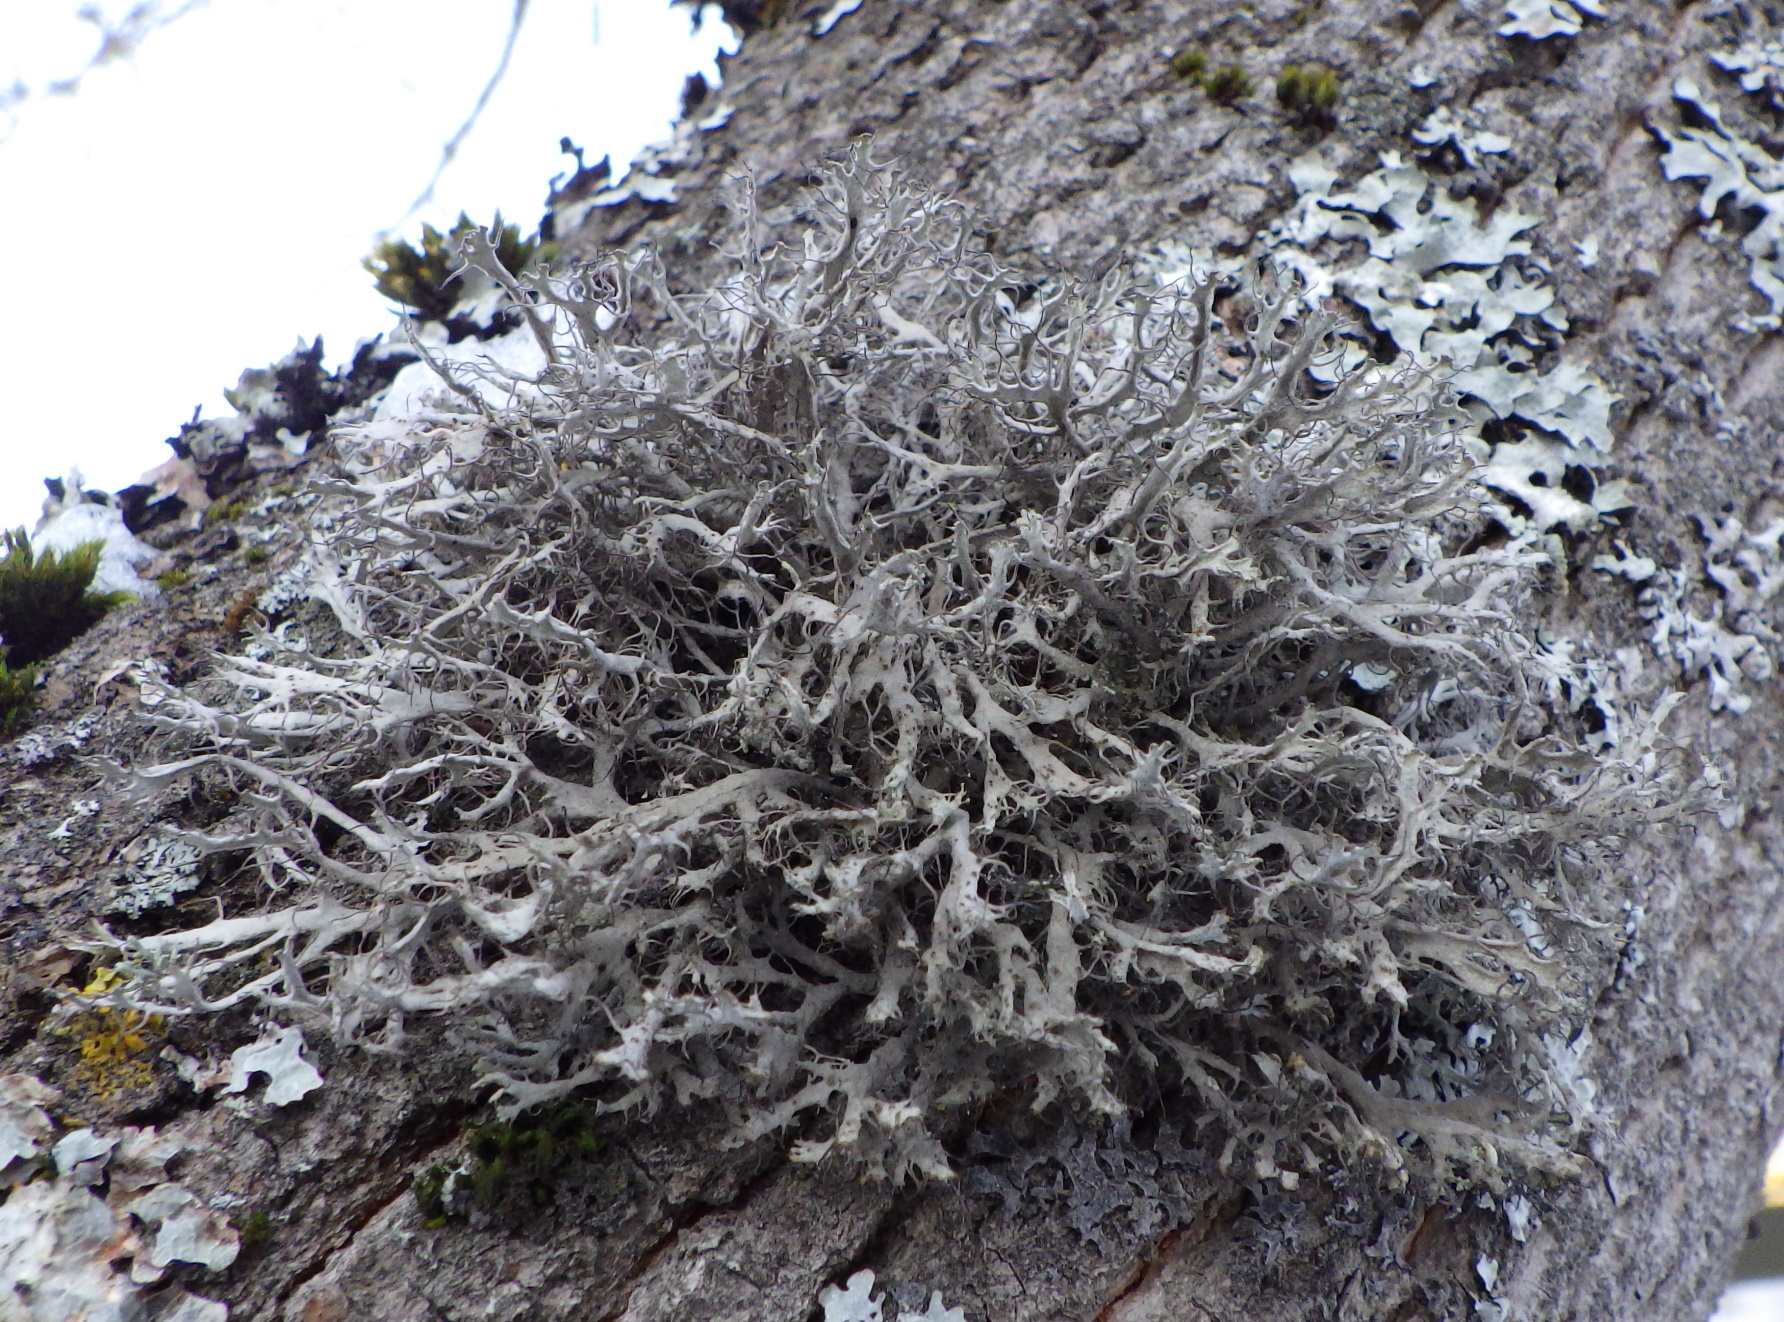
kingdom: Fungi
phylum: Ascomycota
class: Lecanoromycetes
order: Caliciales
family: Physciaceae
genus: Anaptychia
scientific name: Anaptychia ciliaris
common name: Great ciliated lichen
